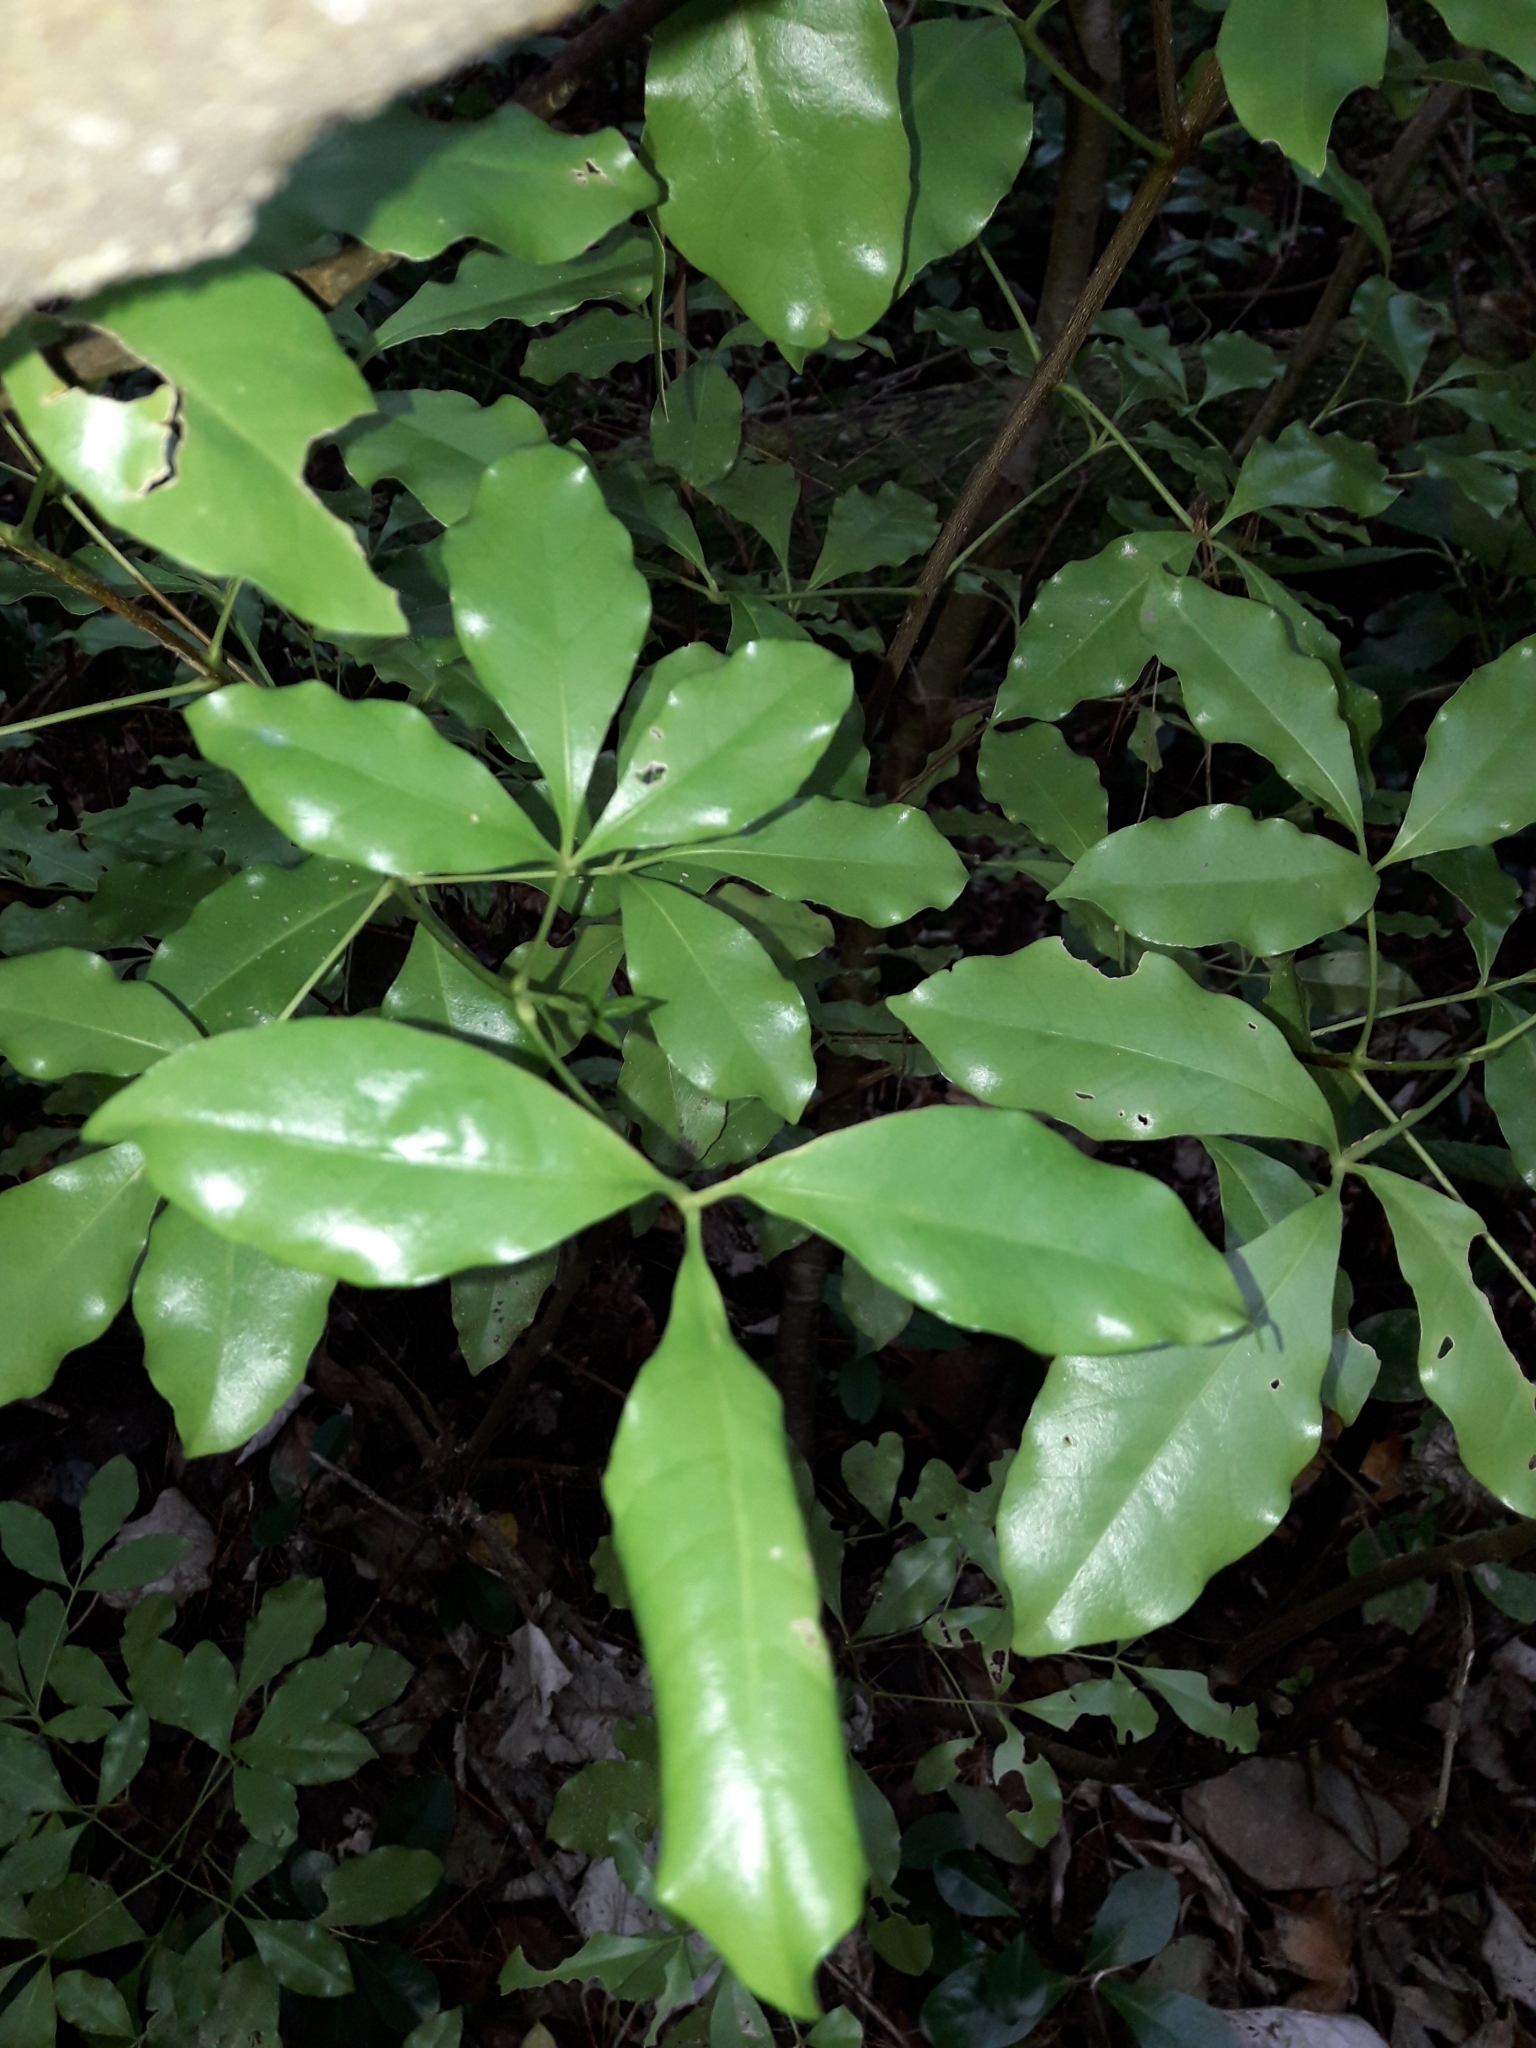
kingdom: Plantae
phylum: Tracheophyta
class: Magnoliopsida
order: Sapindales
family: Rutaceae
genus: Melicope
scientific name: Melicope ternata
